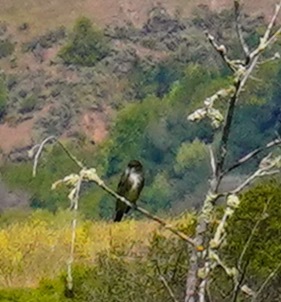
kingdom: Animalia
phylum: Chordata
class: Aves
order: Passeriformes
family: Tyrannidae
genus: Contopus
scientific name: Contopus cooperi
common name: Olive-sided flycatcher
